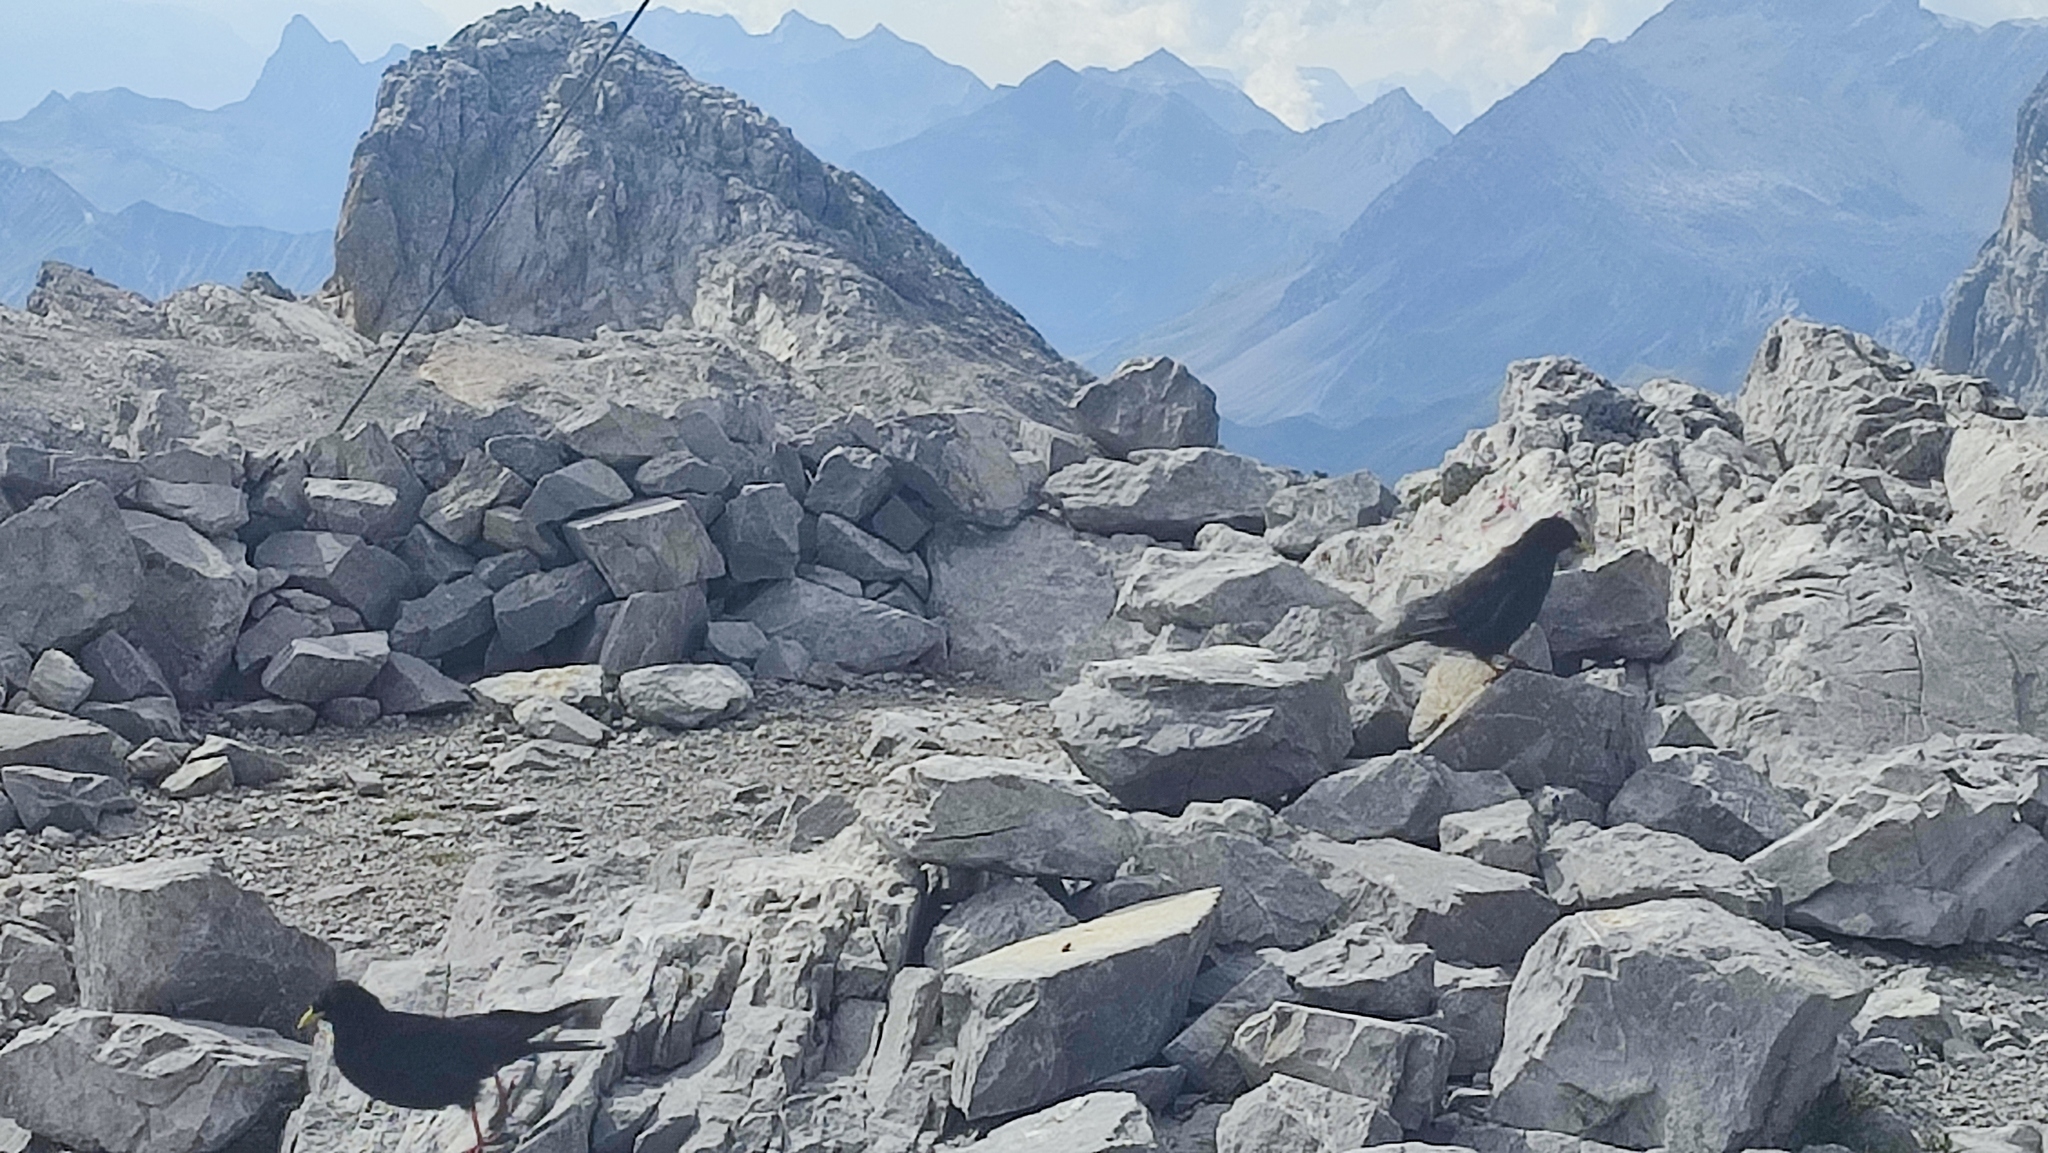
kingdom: Animalia
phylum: Chordata
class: Aves
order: Passeriformes
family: Corvidae
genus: Pyrrhocorax
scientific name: Pyrrhocorax graculus
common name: Alpine chough
